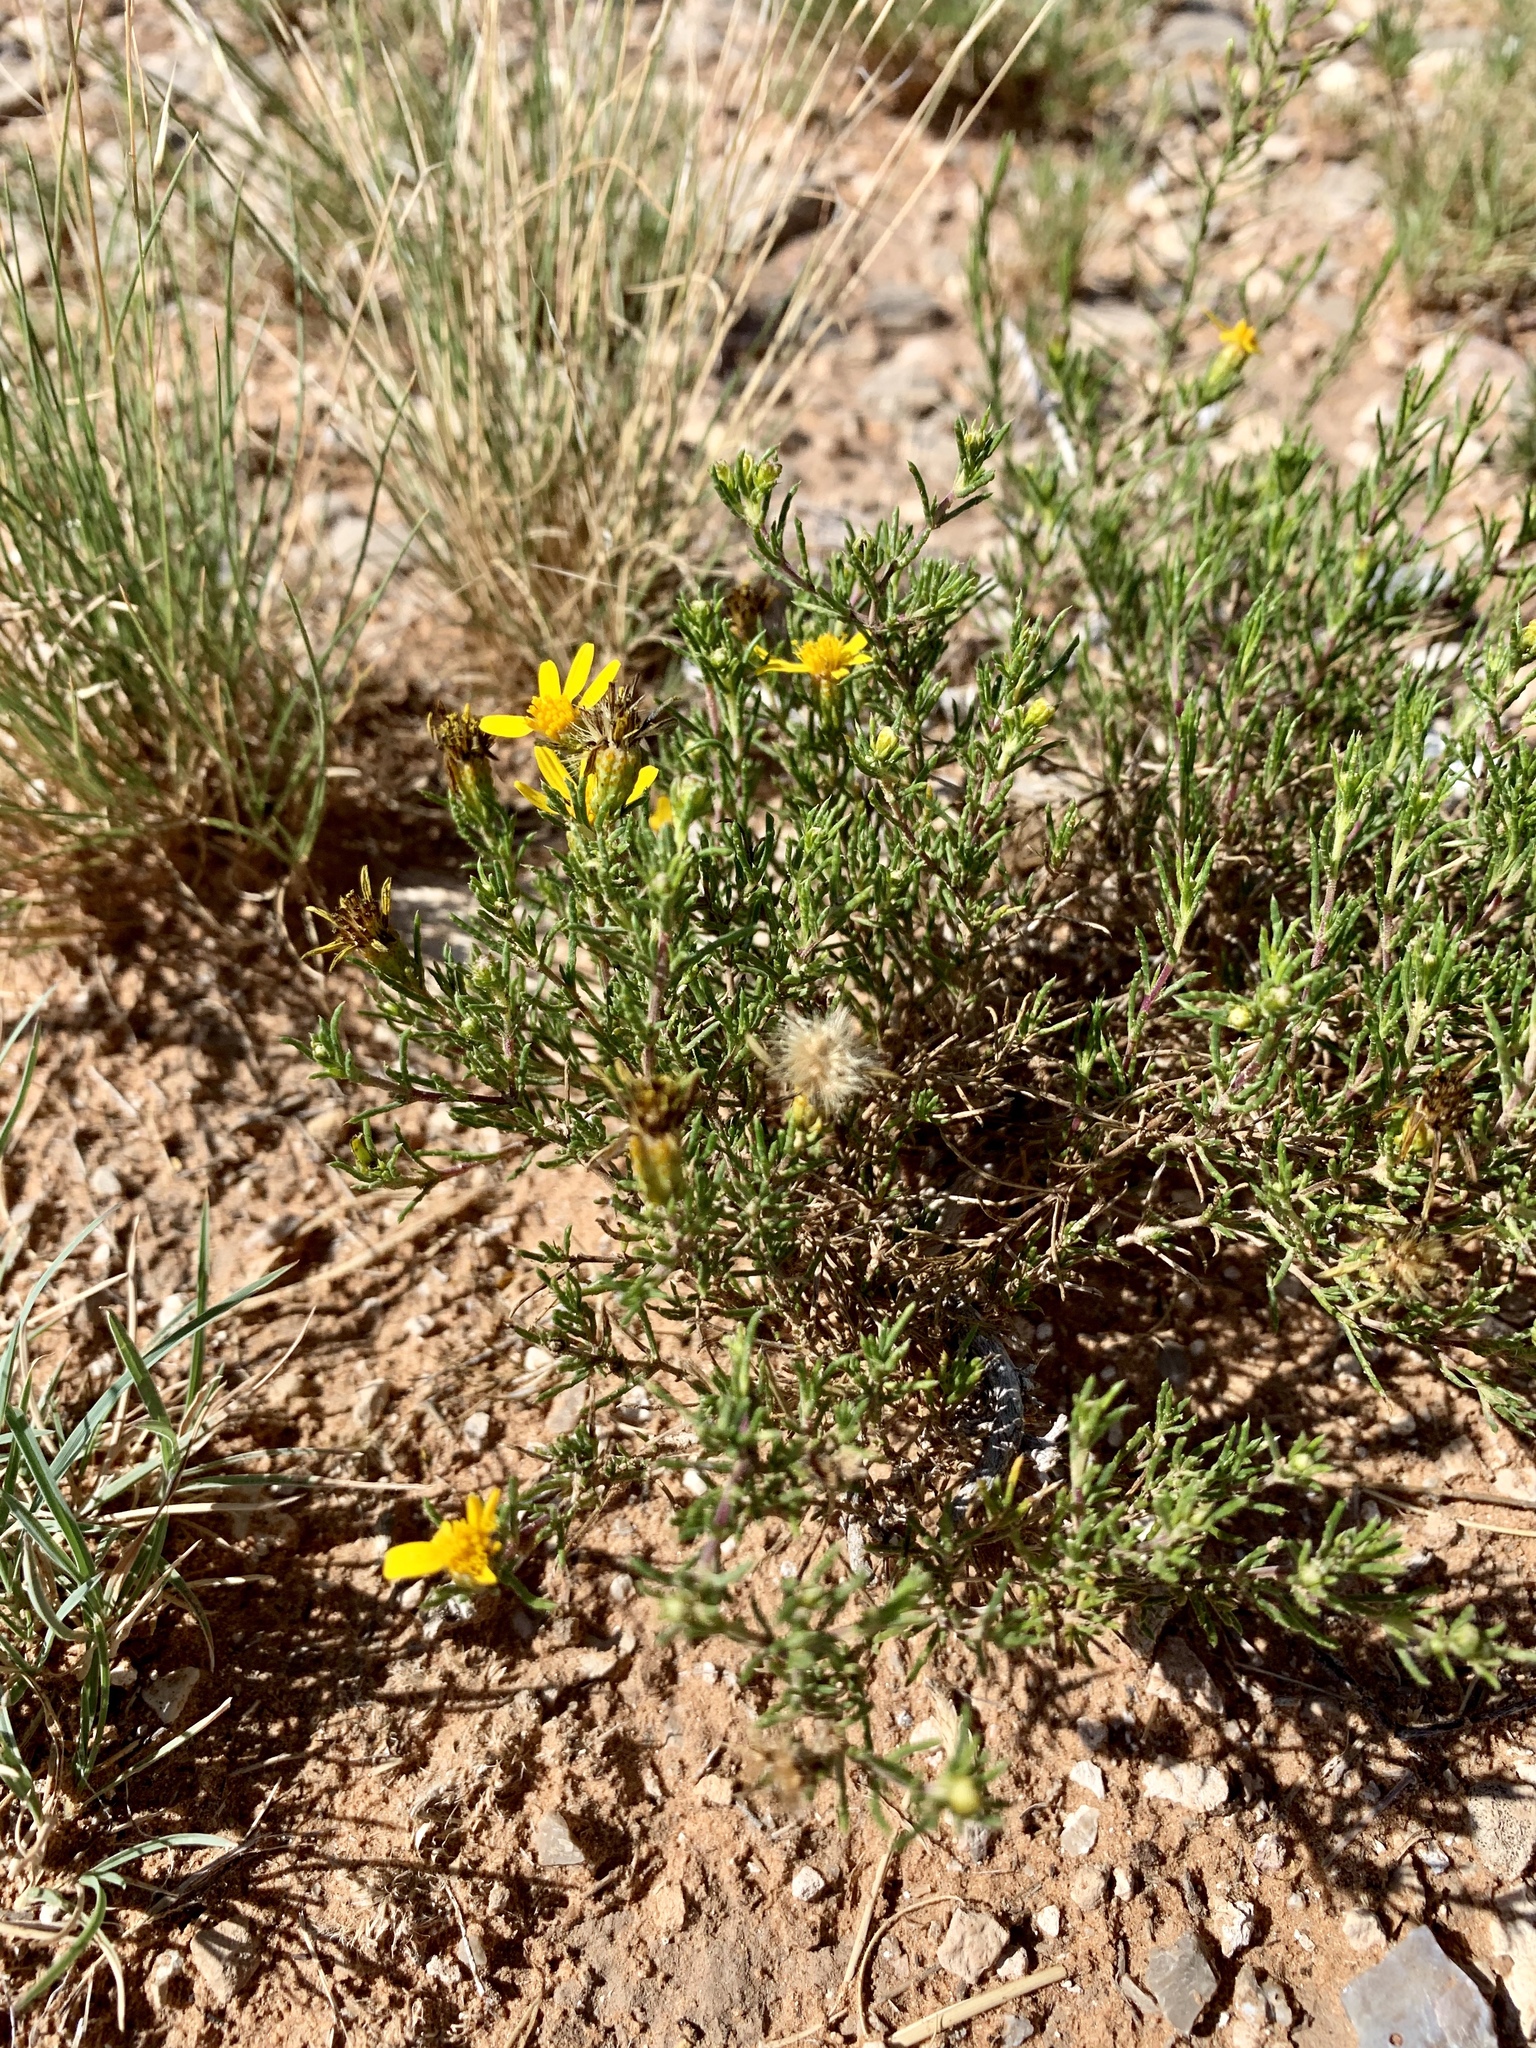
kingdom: Plantae
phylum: Tracheophyta
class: Magnoliopsida
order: Asterales
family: Asteraceae
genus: Thymophylla
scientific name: Thymophylla acerosa
